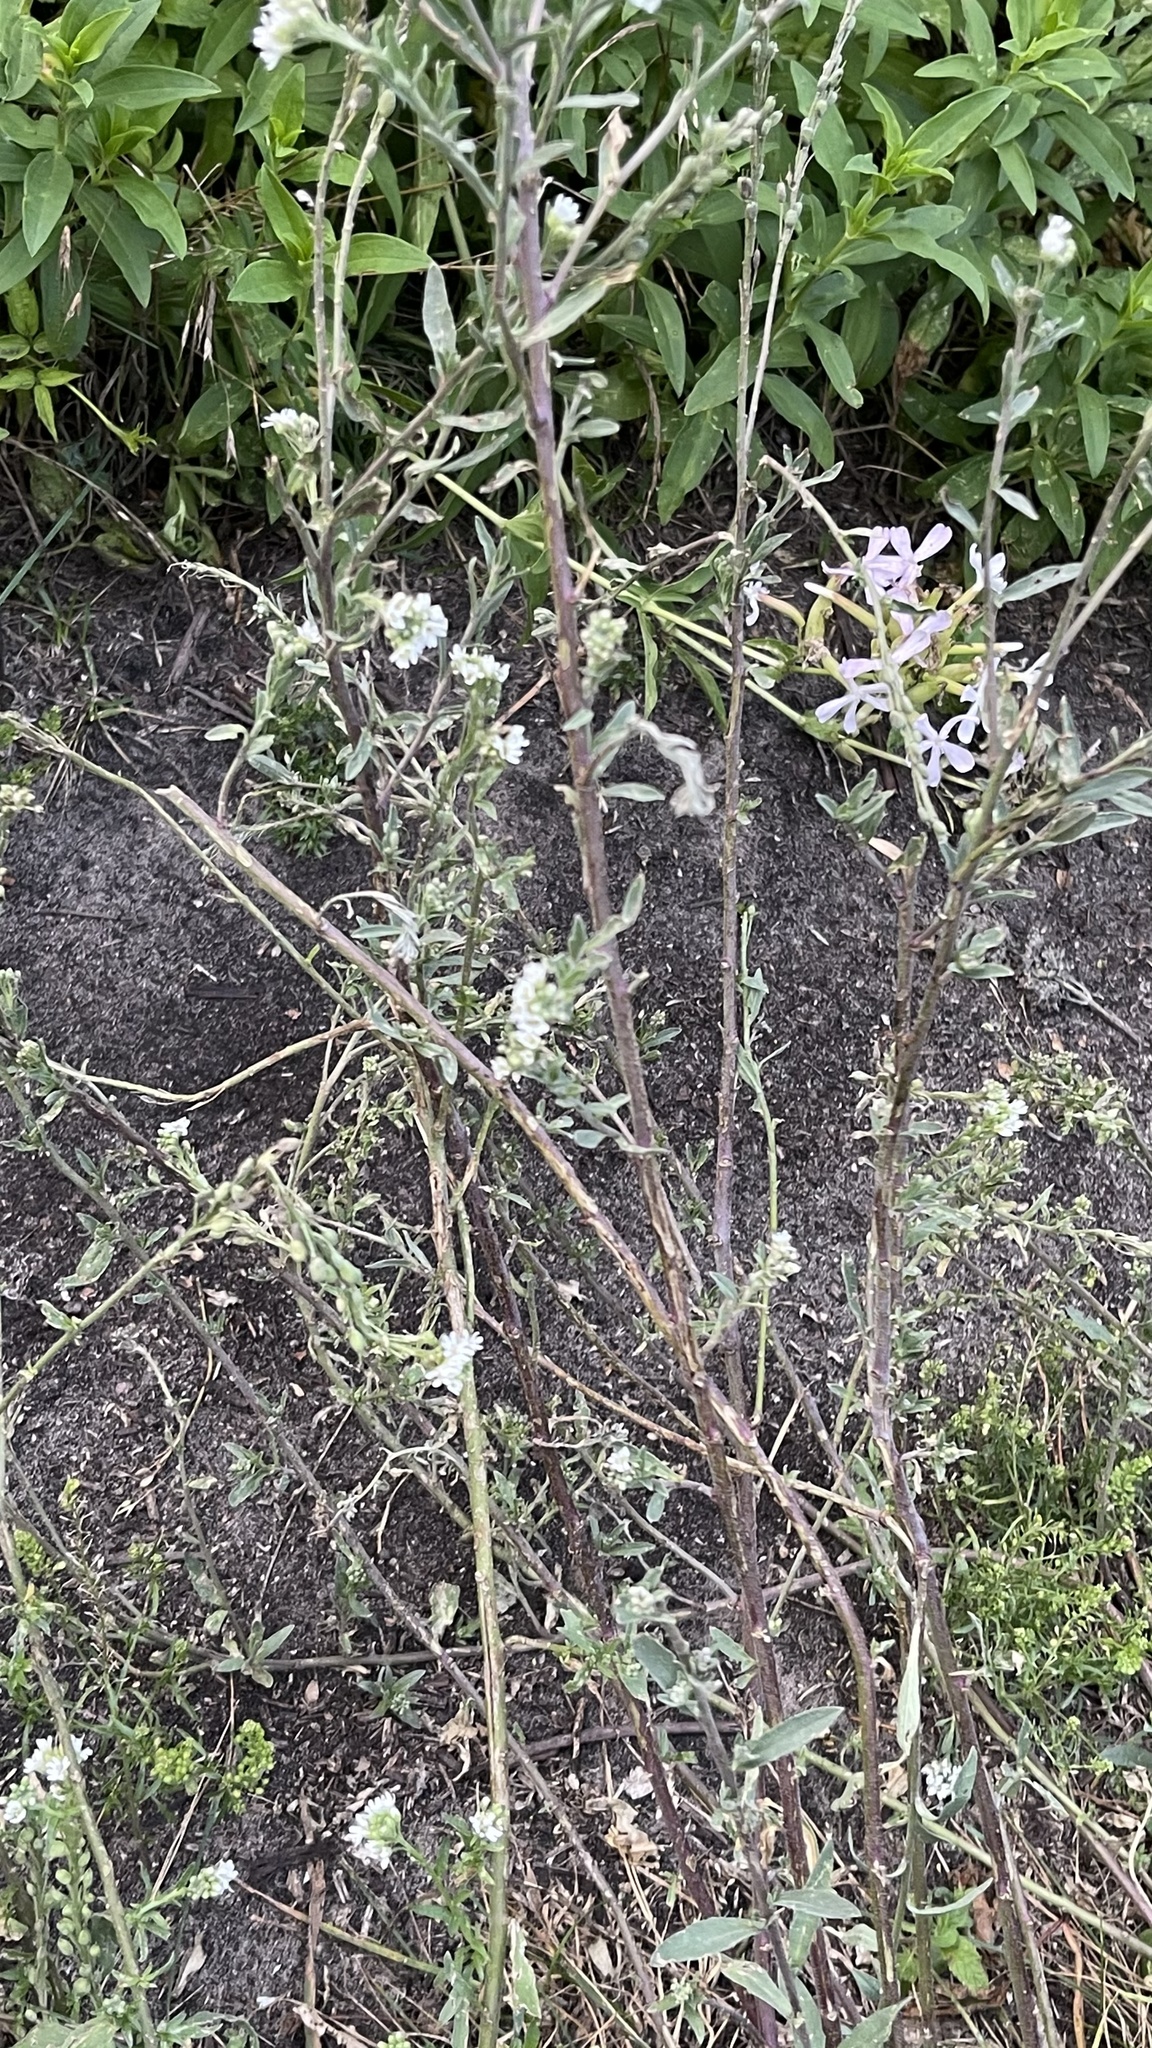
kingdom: Plantae
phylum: Tracheophyta
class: Magnoliopsida
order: Brassicales
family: Brassicaceae
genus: Berteroa
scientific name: Berteroa incana
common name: Hoary alison
